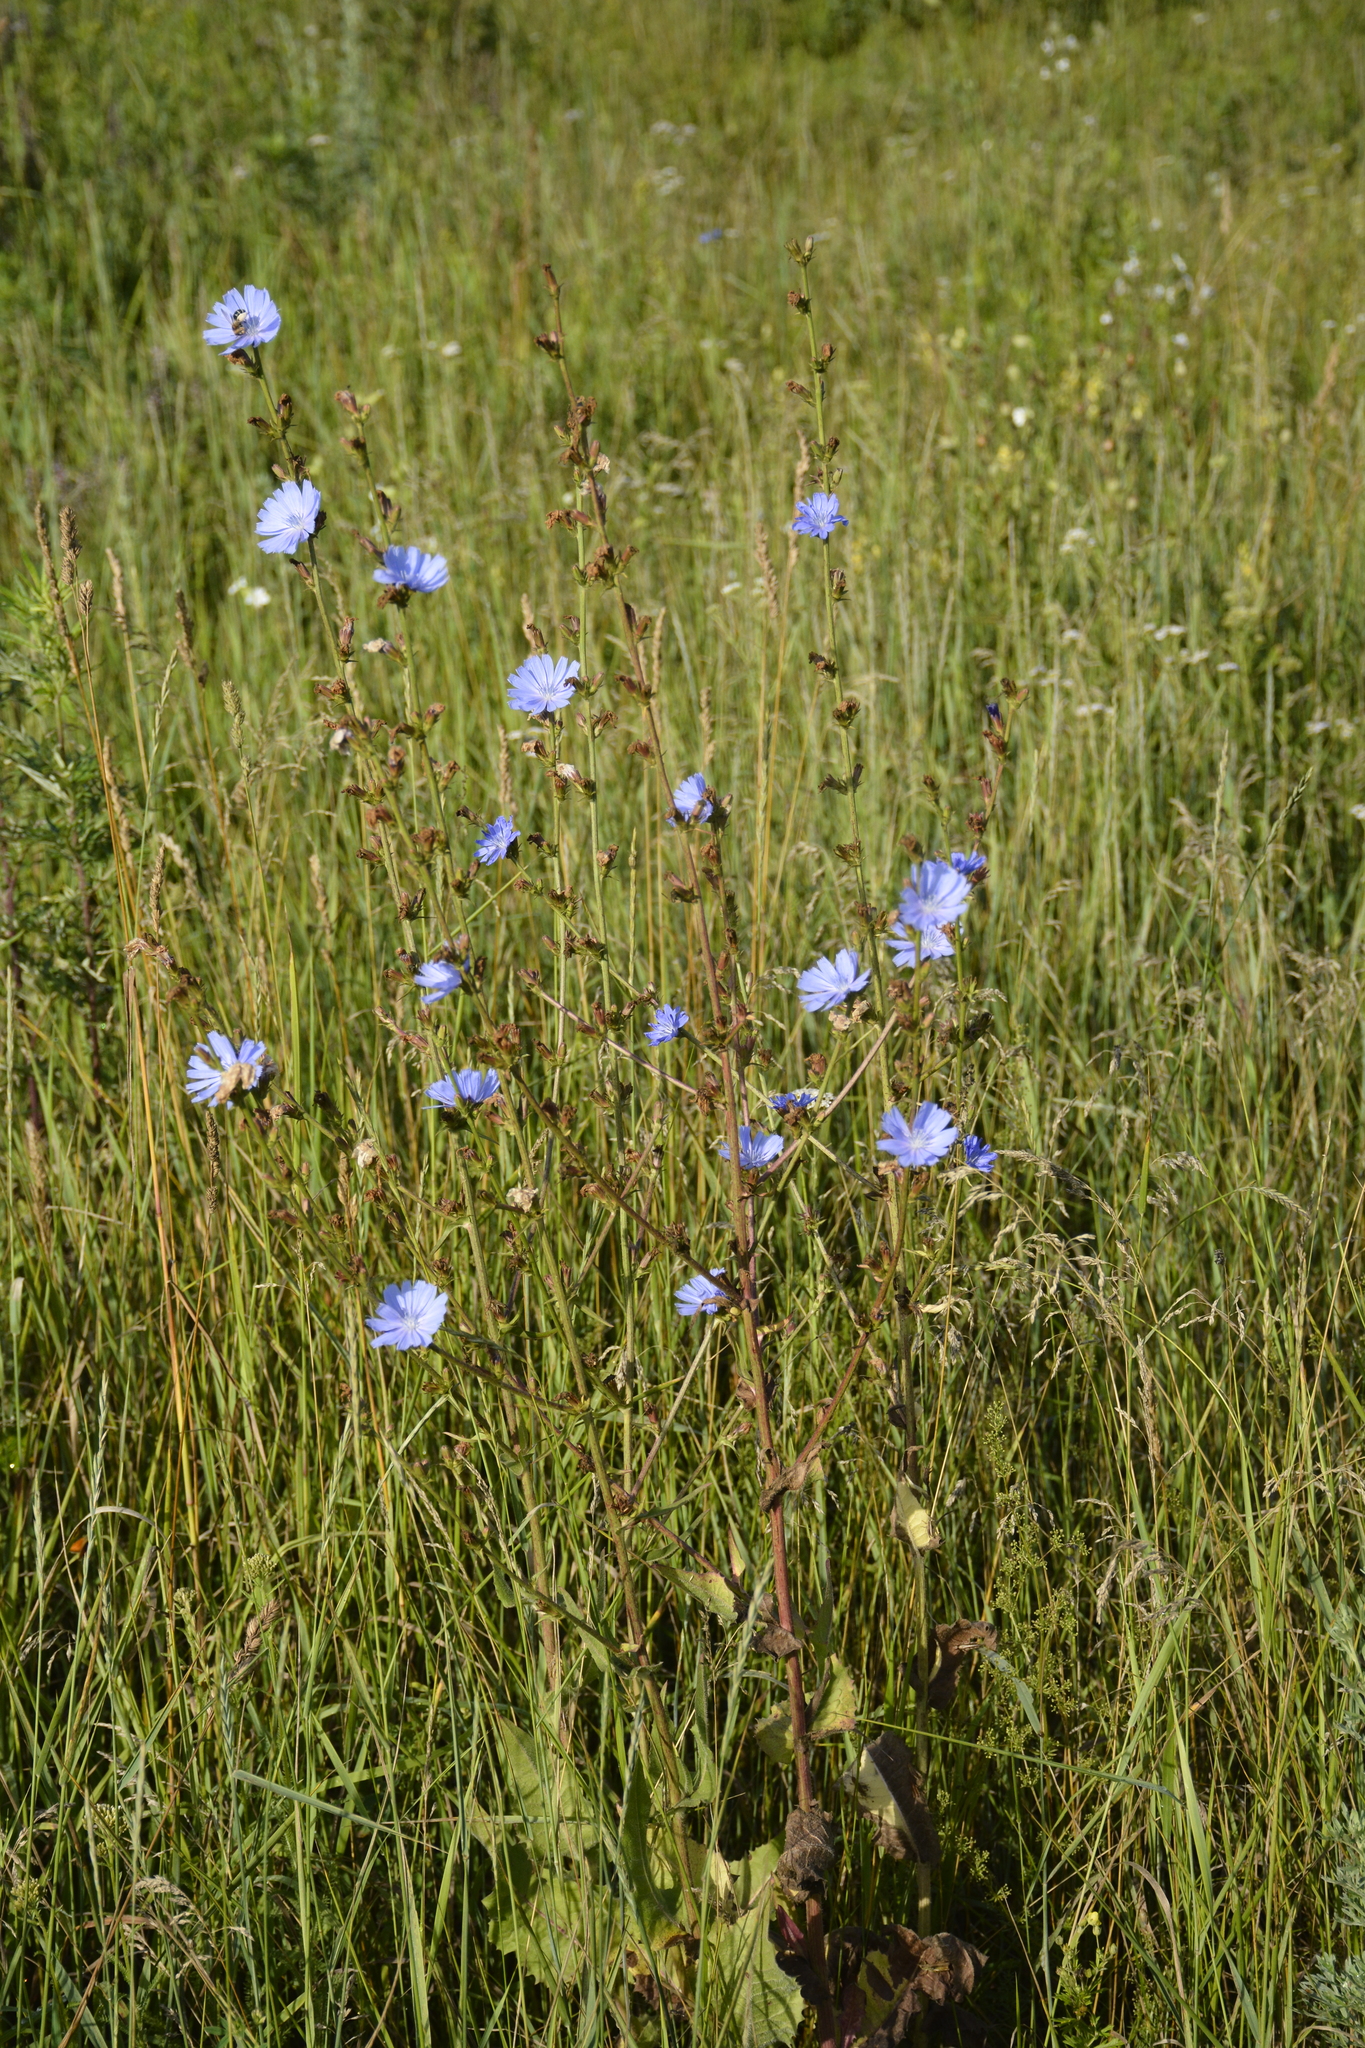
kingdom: Plantae
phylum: Tracheophyta
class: Magnoliopsida
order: Asterales
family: Asteraceae
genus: Cichorium
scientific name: Cichorium intybus
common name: Chicory
